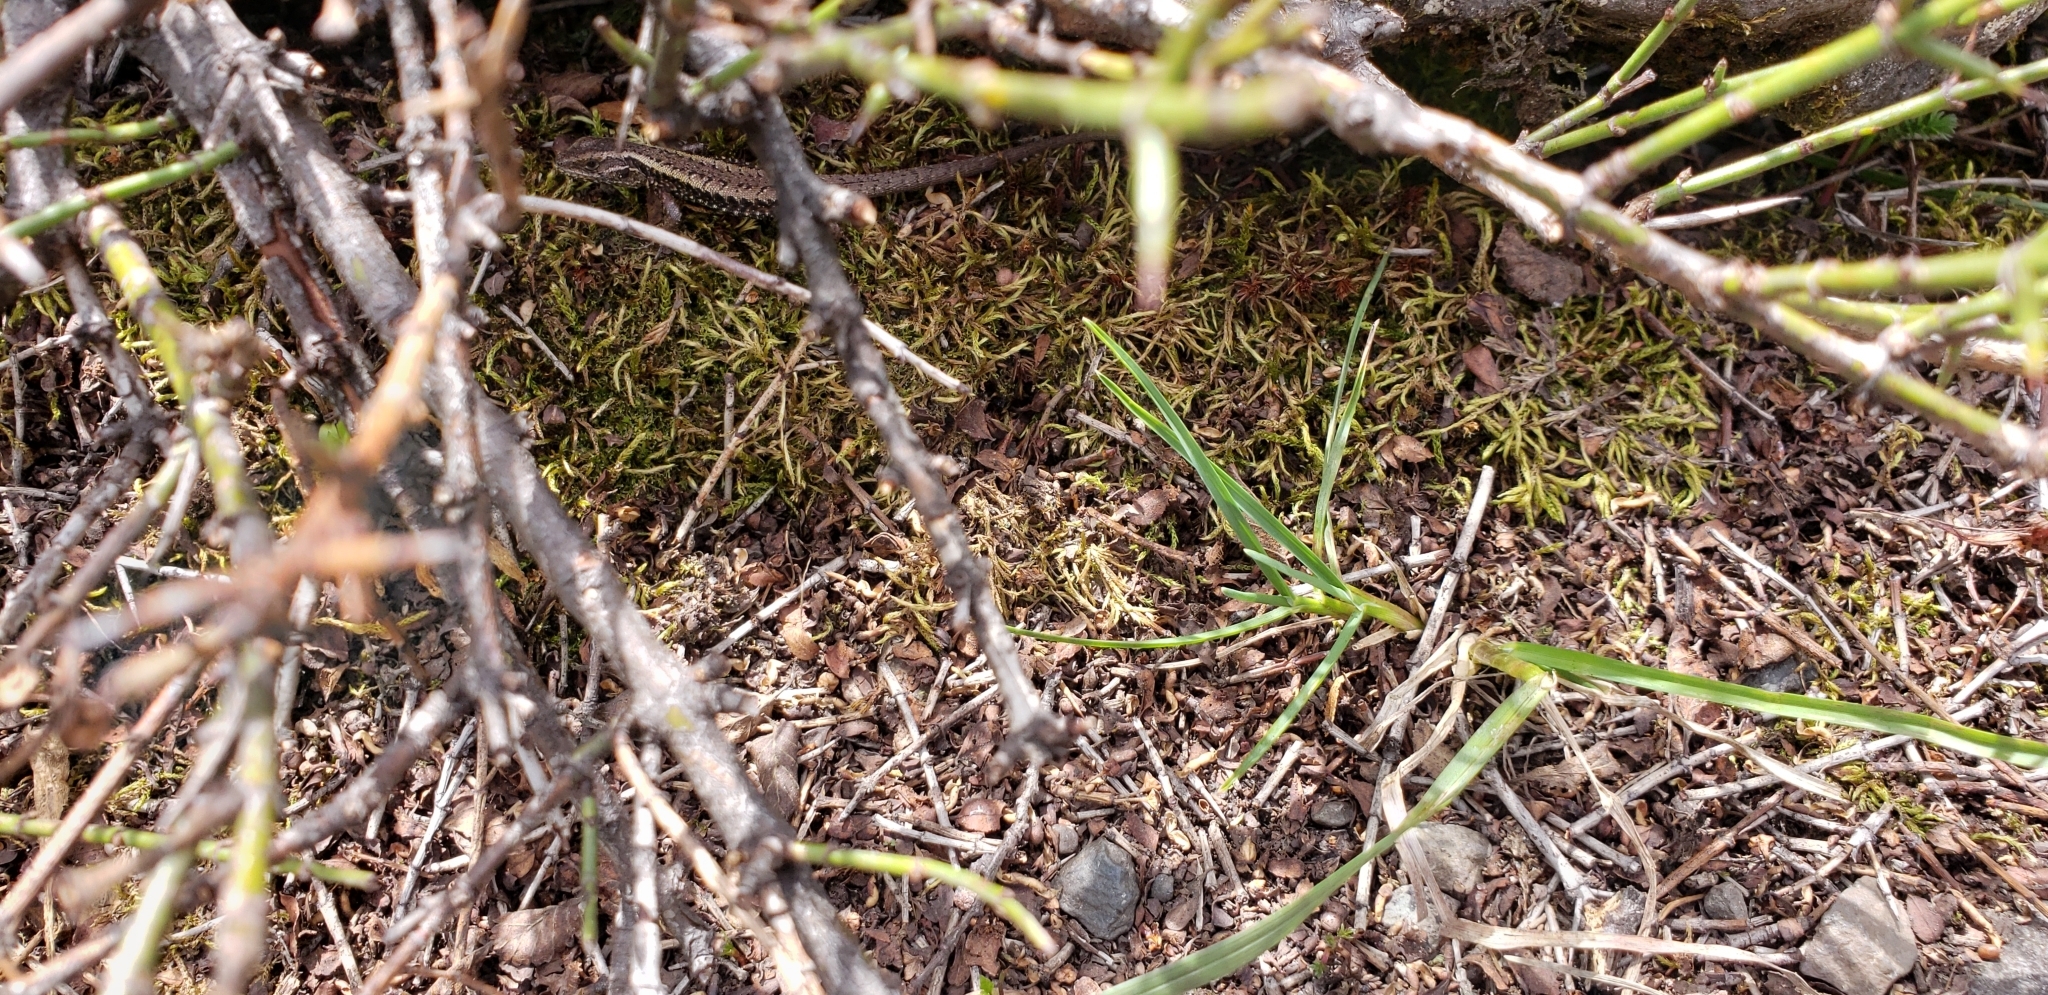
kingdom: Animalia
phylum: Chordata
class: Squamata
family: Liolaemidae
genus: Liolaemus
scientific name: Liolaemus pictus
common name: Painted tree iguana
